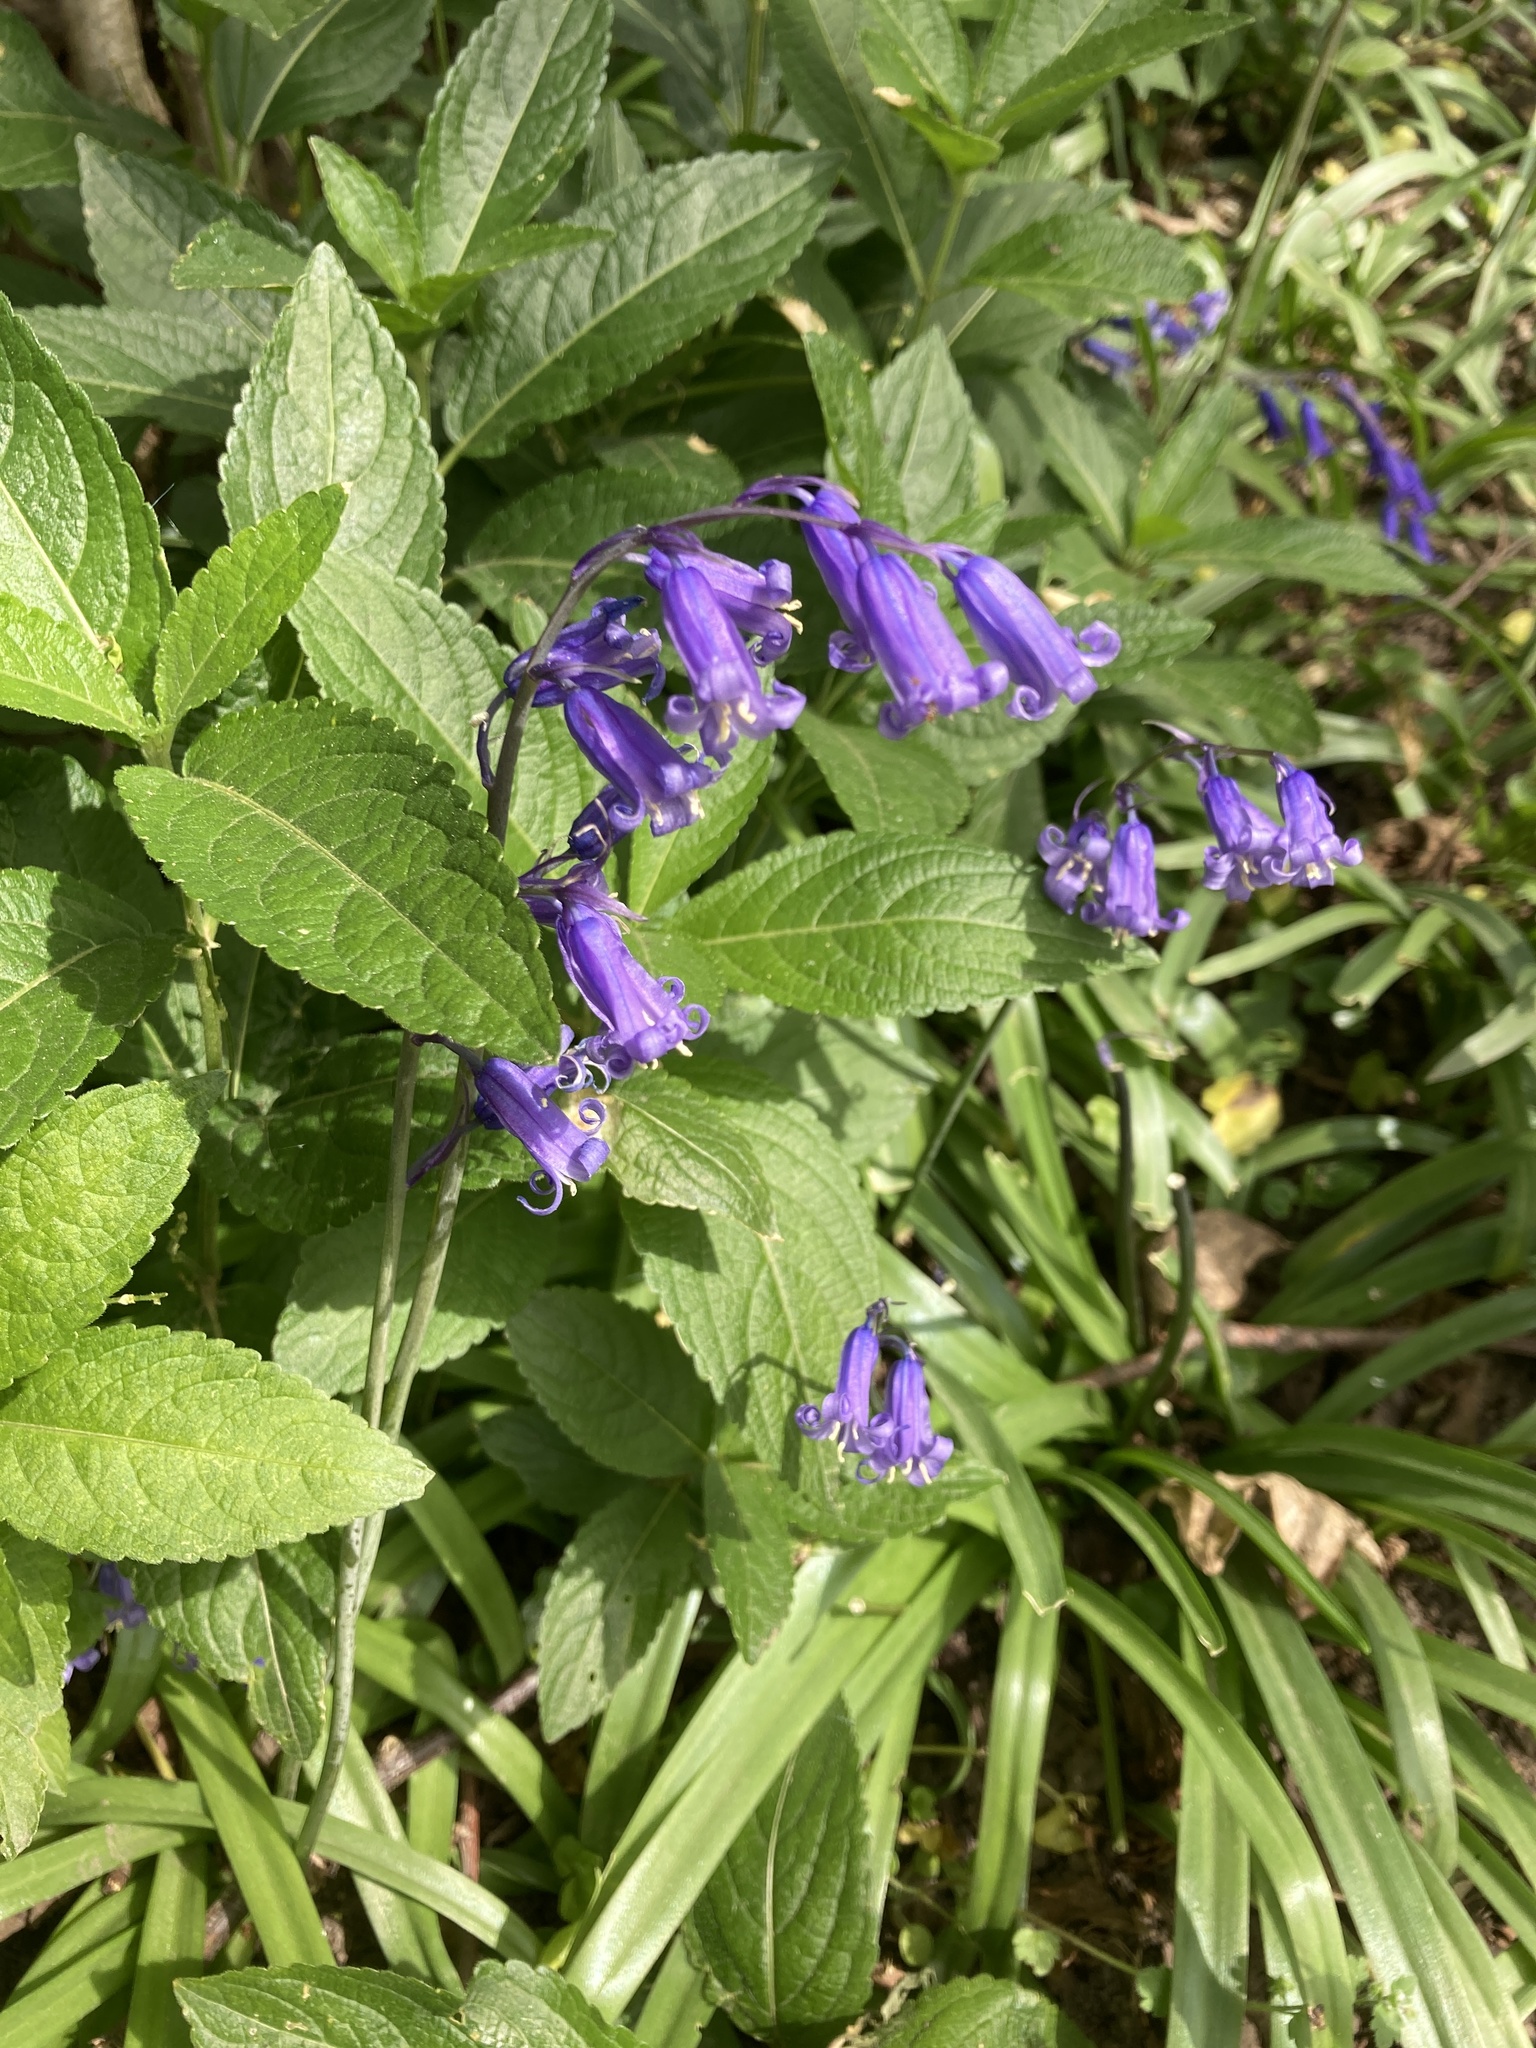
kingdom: Plantae
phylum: Tracheophyta
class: Liliopsida
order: Asparagales
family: Asparagaceae
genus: Hyacinthoides
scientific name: Hyacinthoides non-scripta
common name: Bluebell
